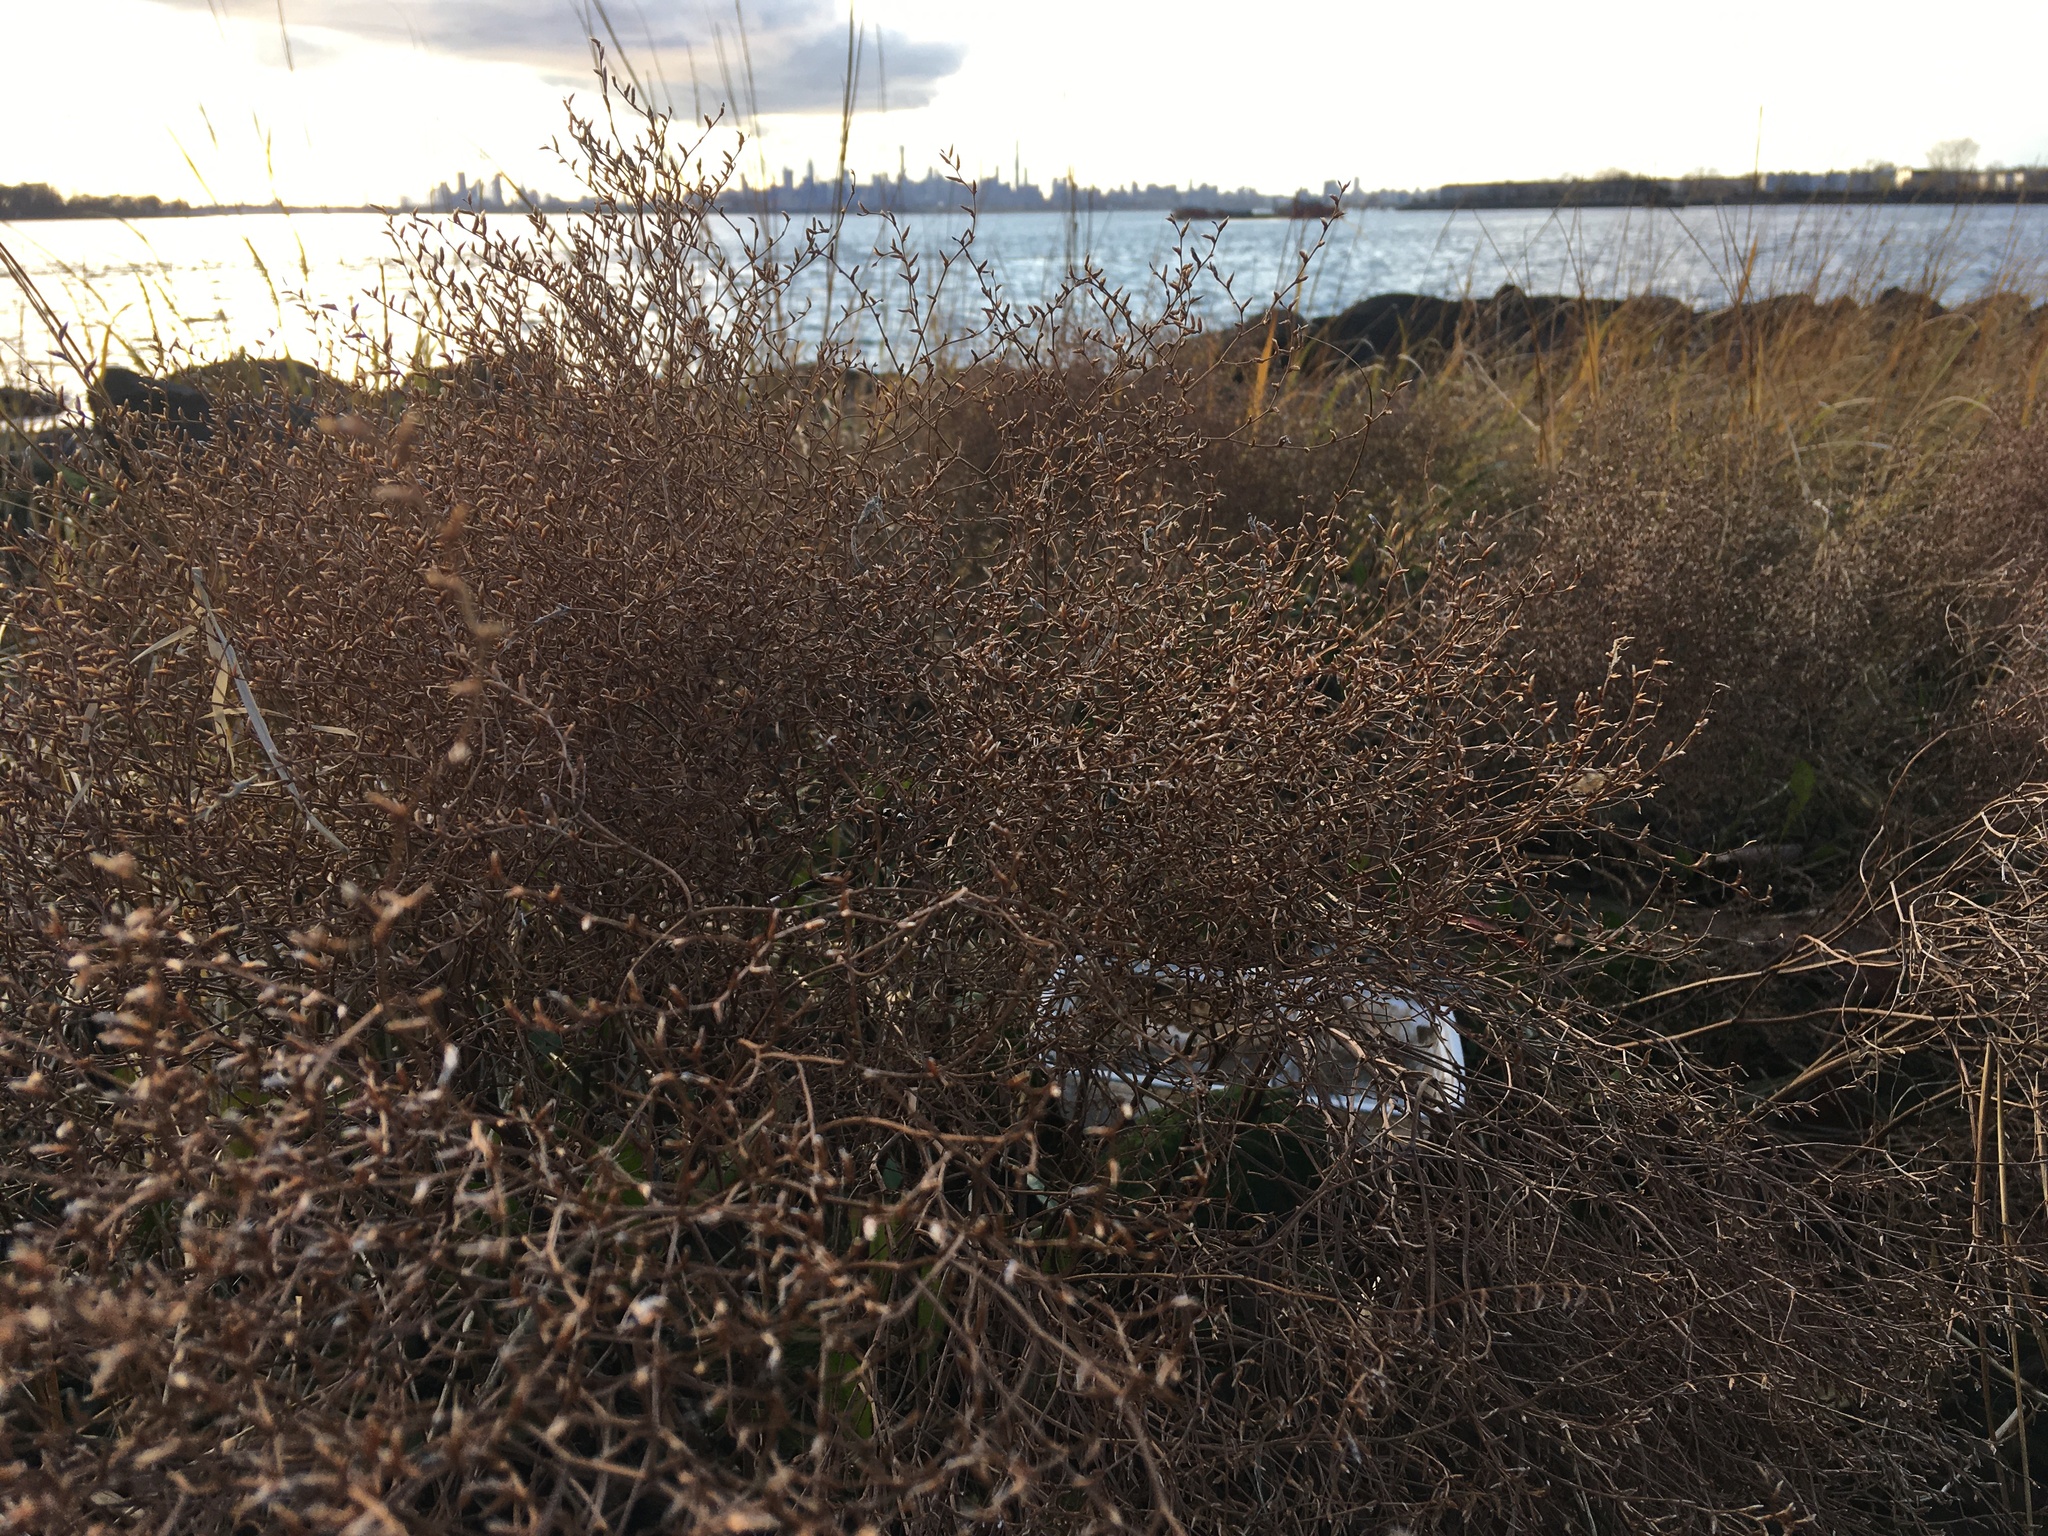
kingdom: Plantae
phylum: Tracheophyta
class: Magnoliopsida
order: Caryophyllales
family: Plumbaginaceae
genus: Limonium
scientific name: Limonium carolinianum
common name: Carolina sea lavender
